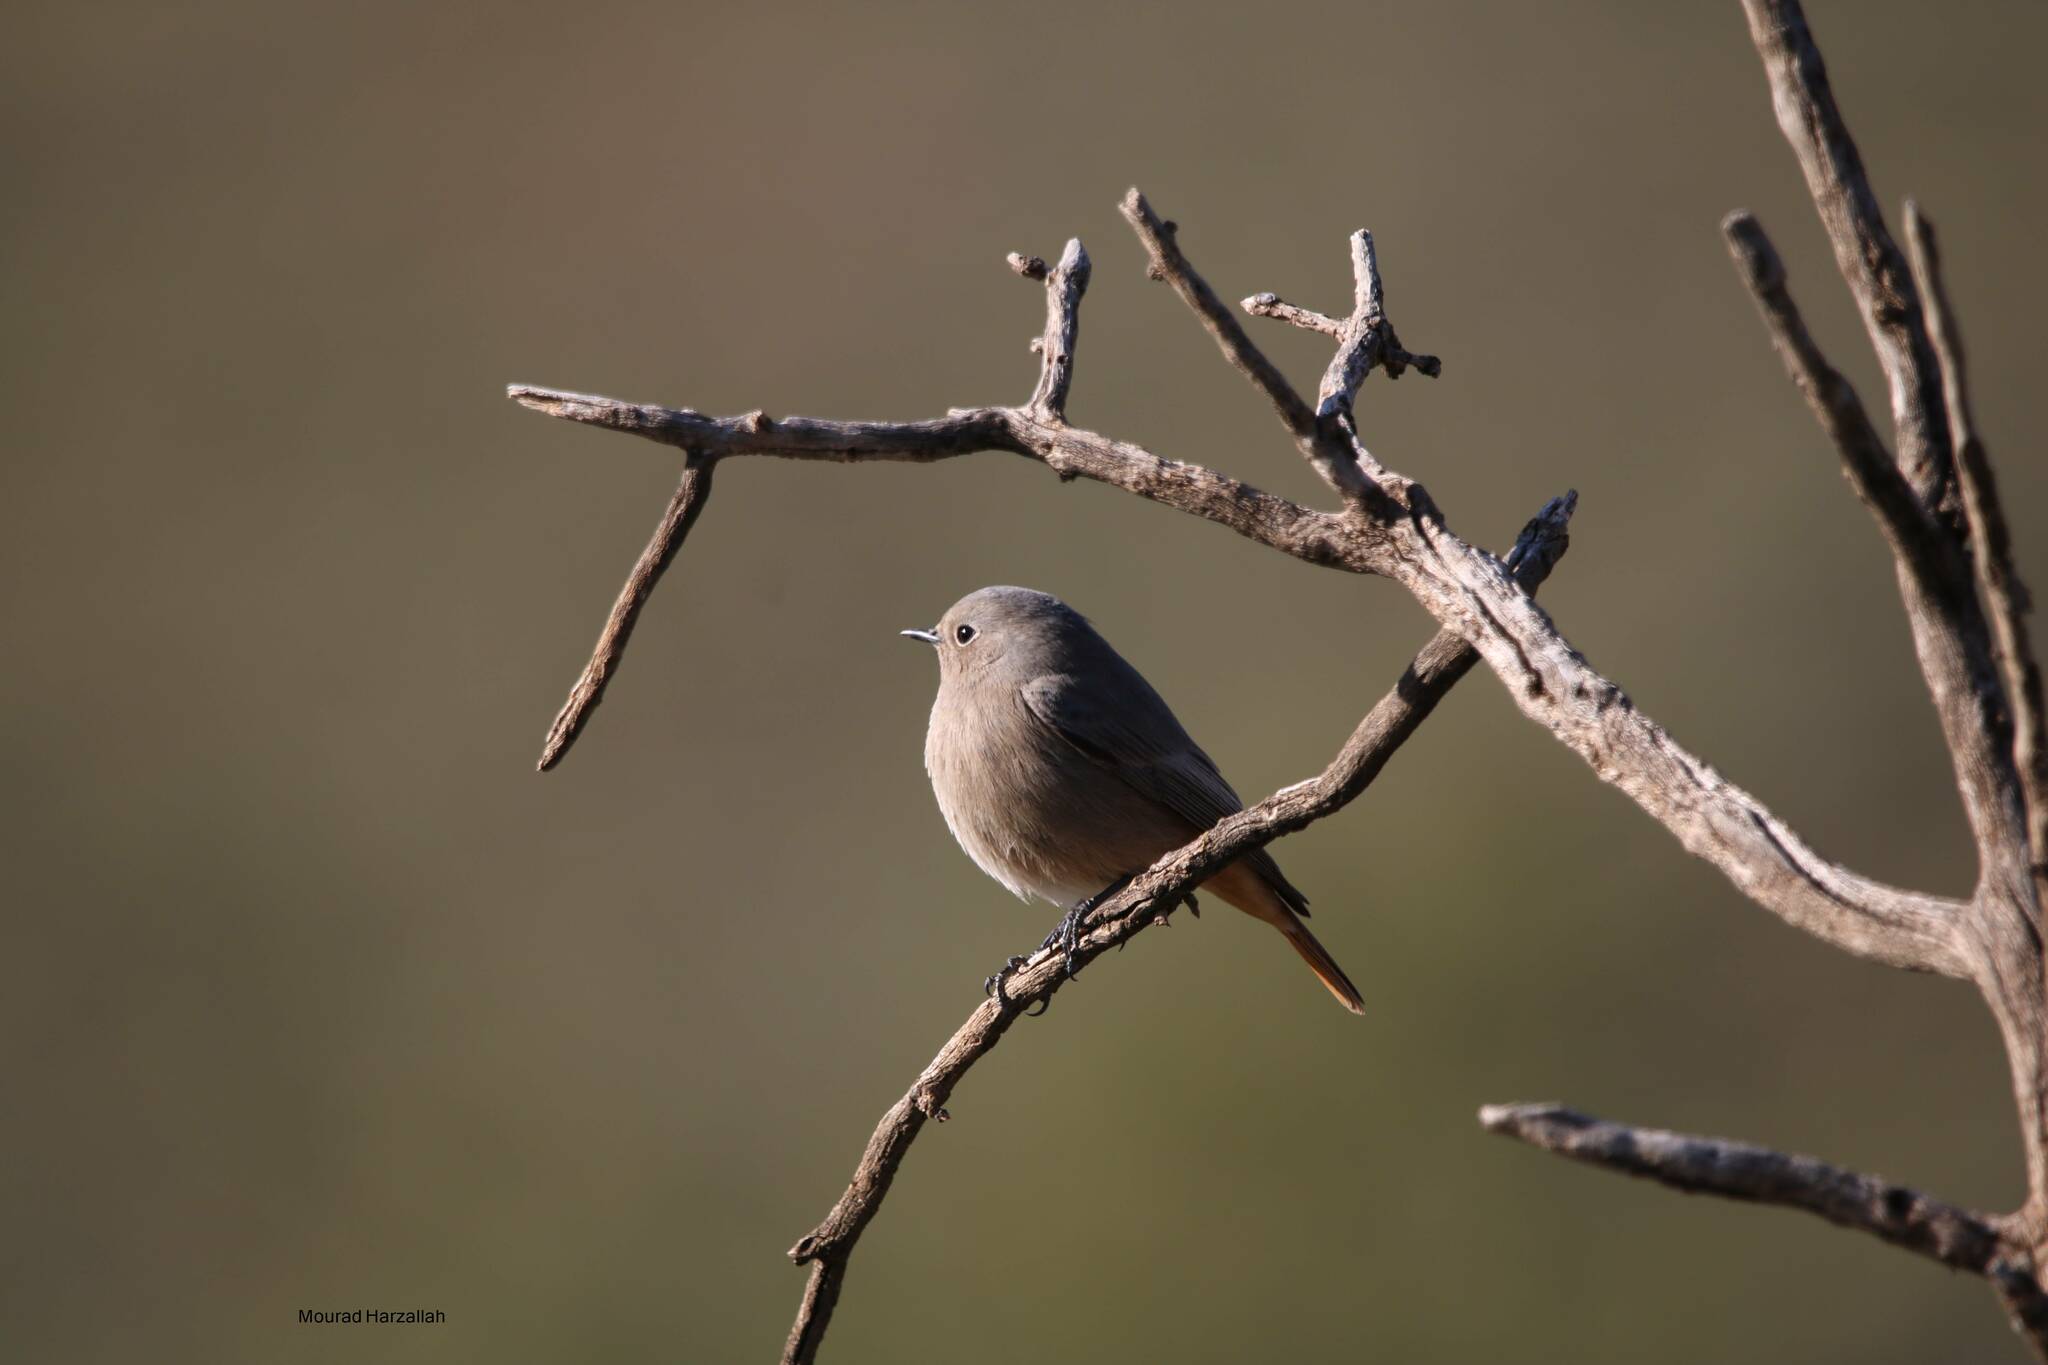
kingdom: Animalia
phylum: Chordata
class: Aves
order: Passeriformes
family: Muscicapidae
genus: Phoenicurus
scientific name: Phoenicurus ochruros
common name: Black redstart
